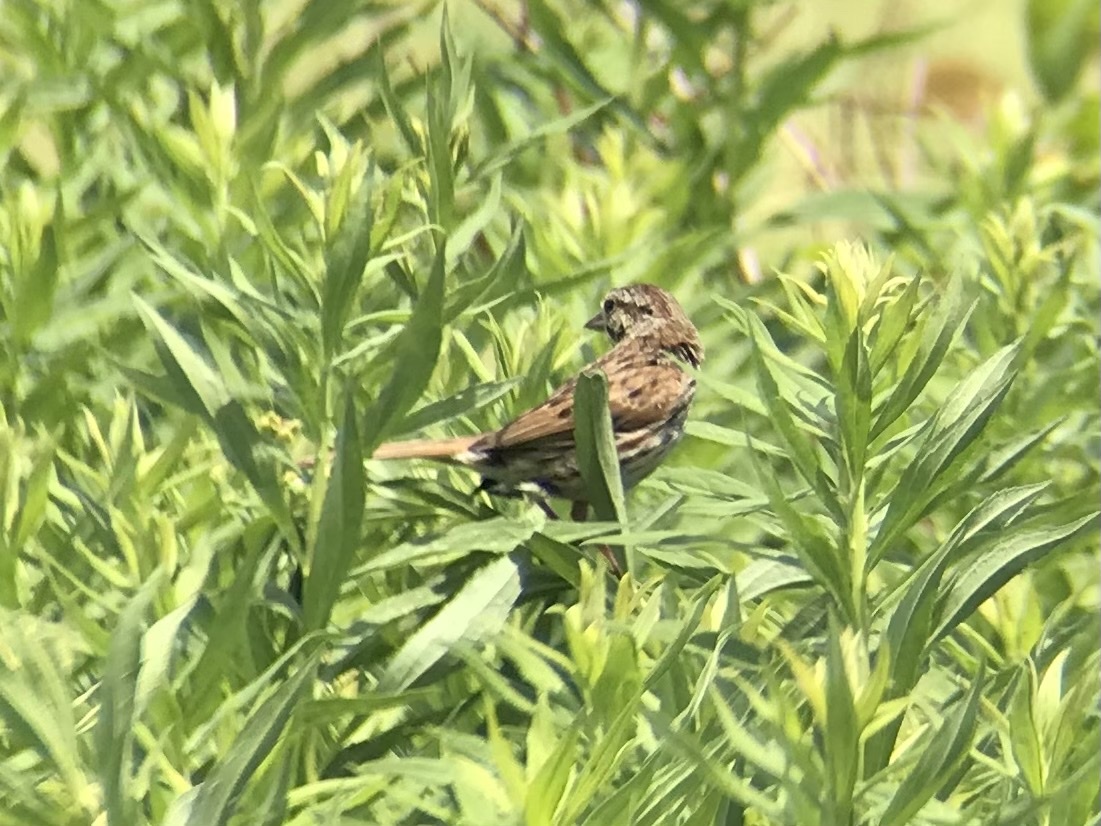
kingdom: Animalia
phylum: Chordata
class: Aves
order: Passeriformes
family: Passerellidae
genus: Melospiza
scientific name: Melospiza melodia
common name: Song sparrow
